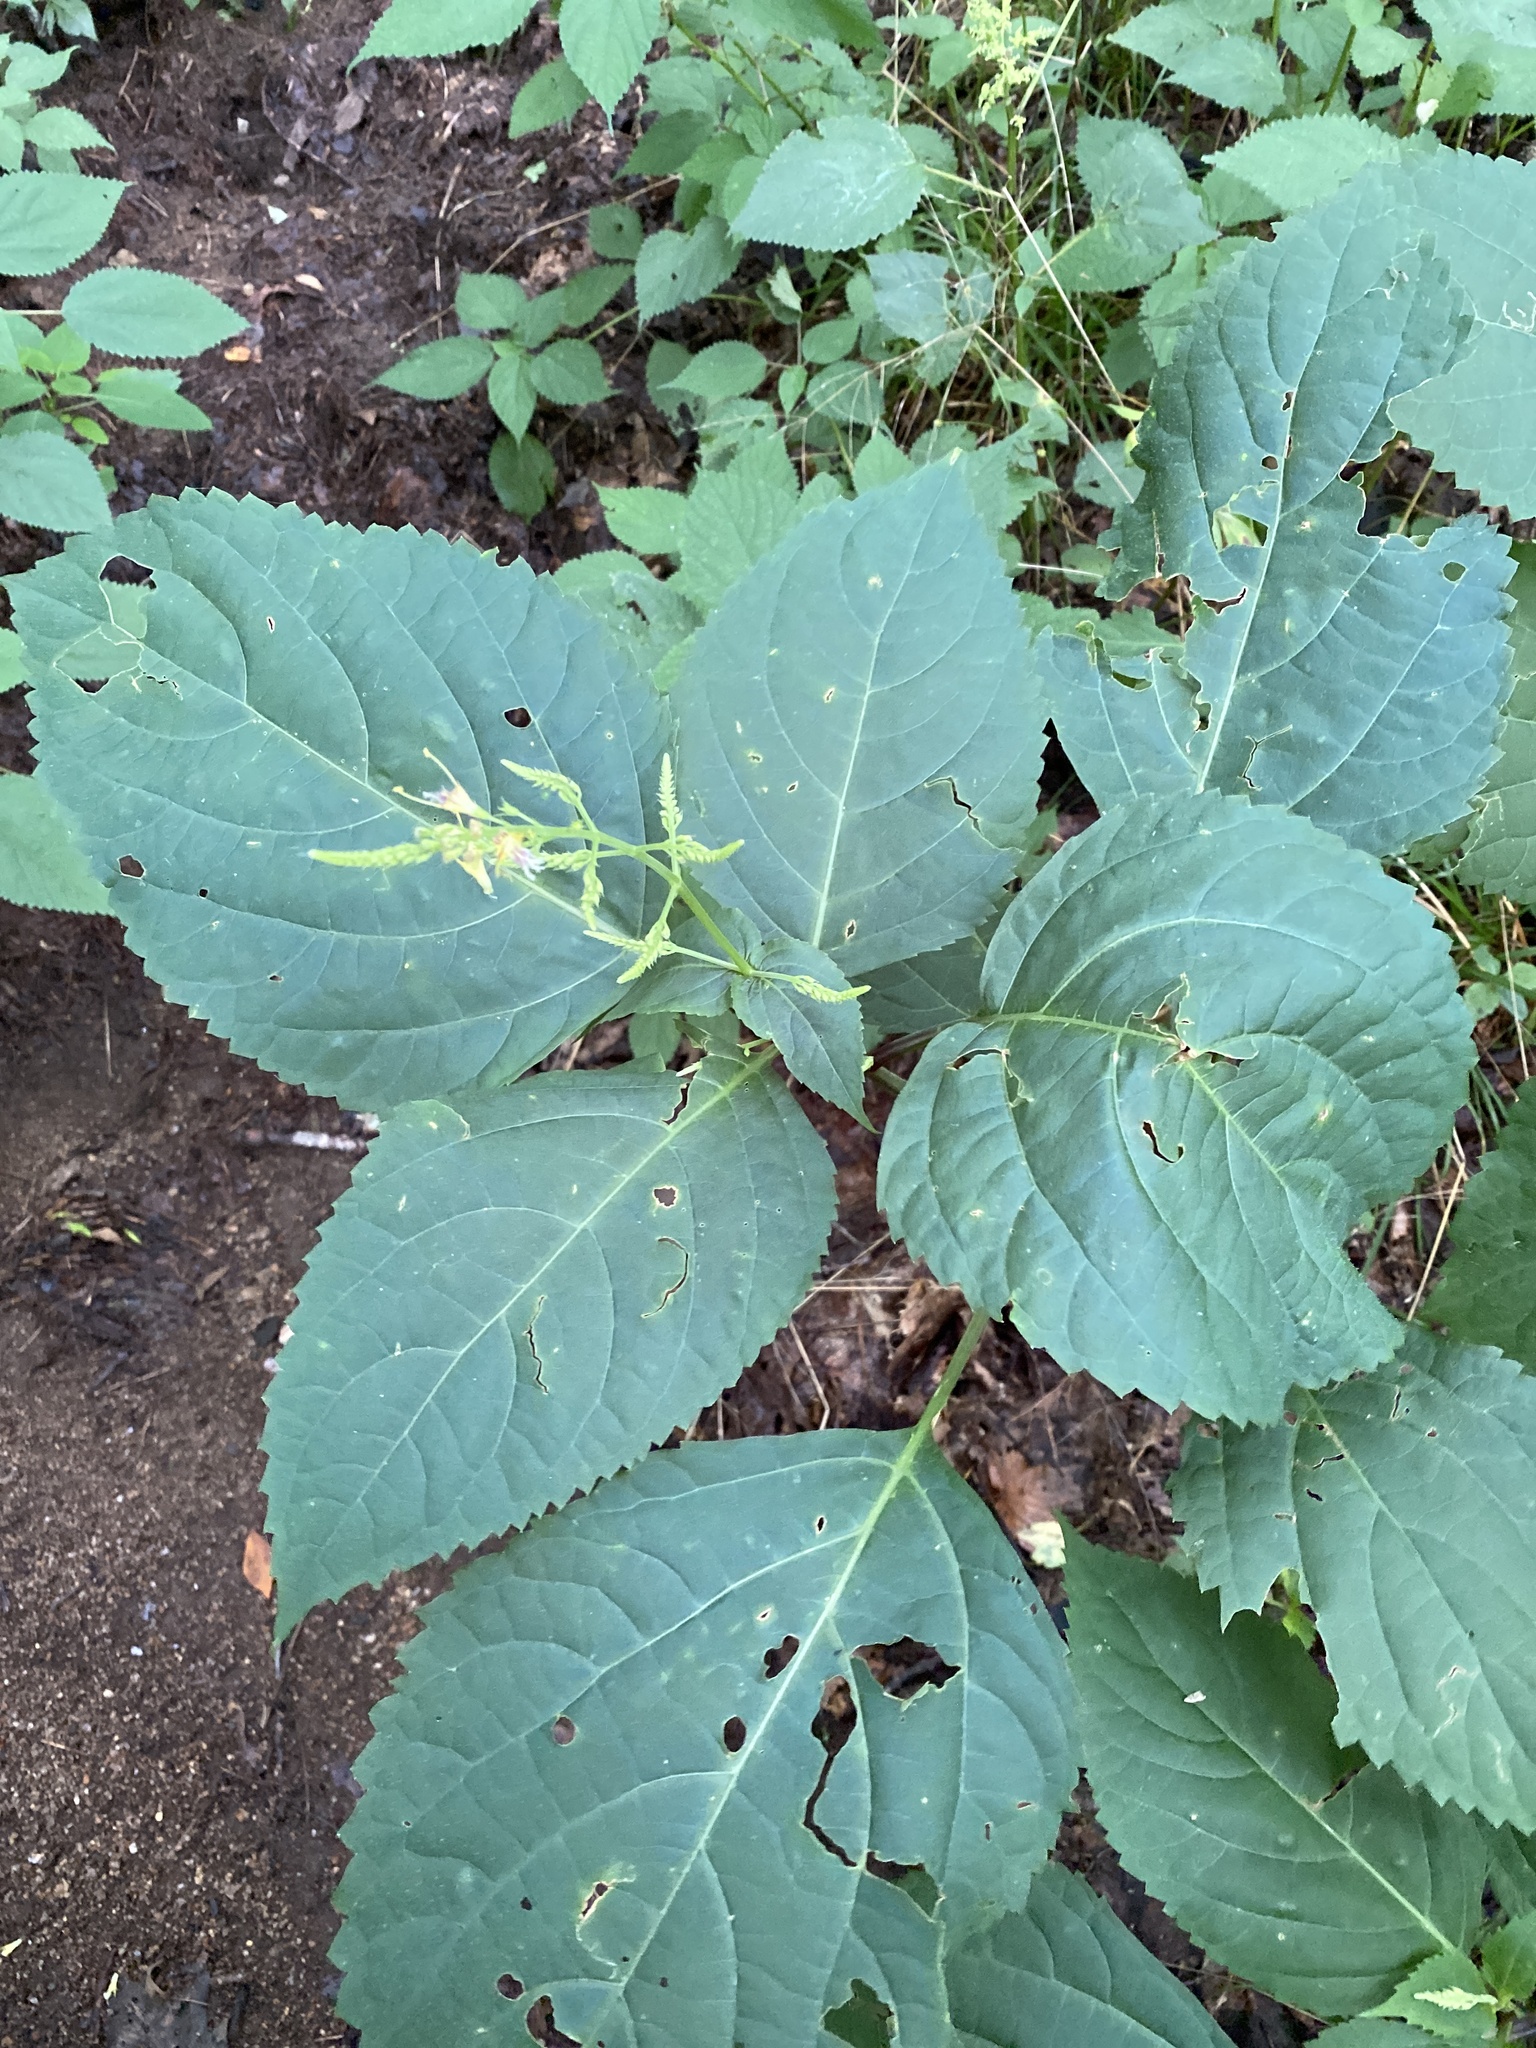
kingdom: Plantae
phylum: Tracheophyta
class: Magnoliopsida
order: Lamiales
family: Lamiaceae
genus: Collinsonia
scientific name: Collinsonia canadensis
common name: Northern horsebalm
